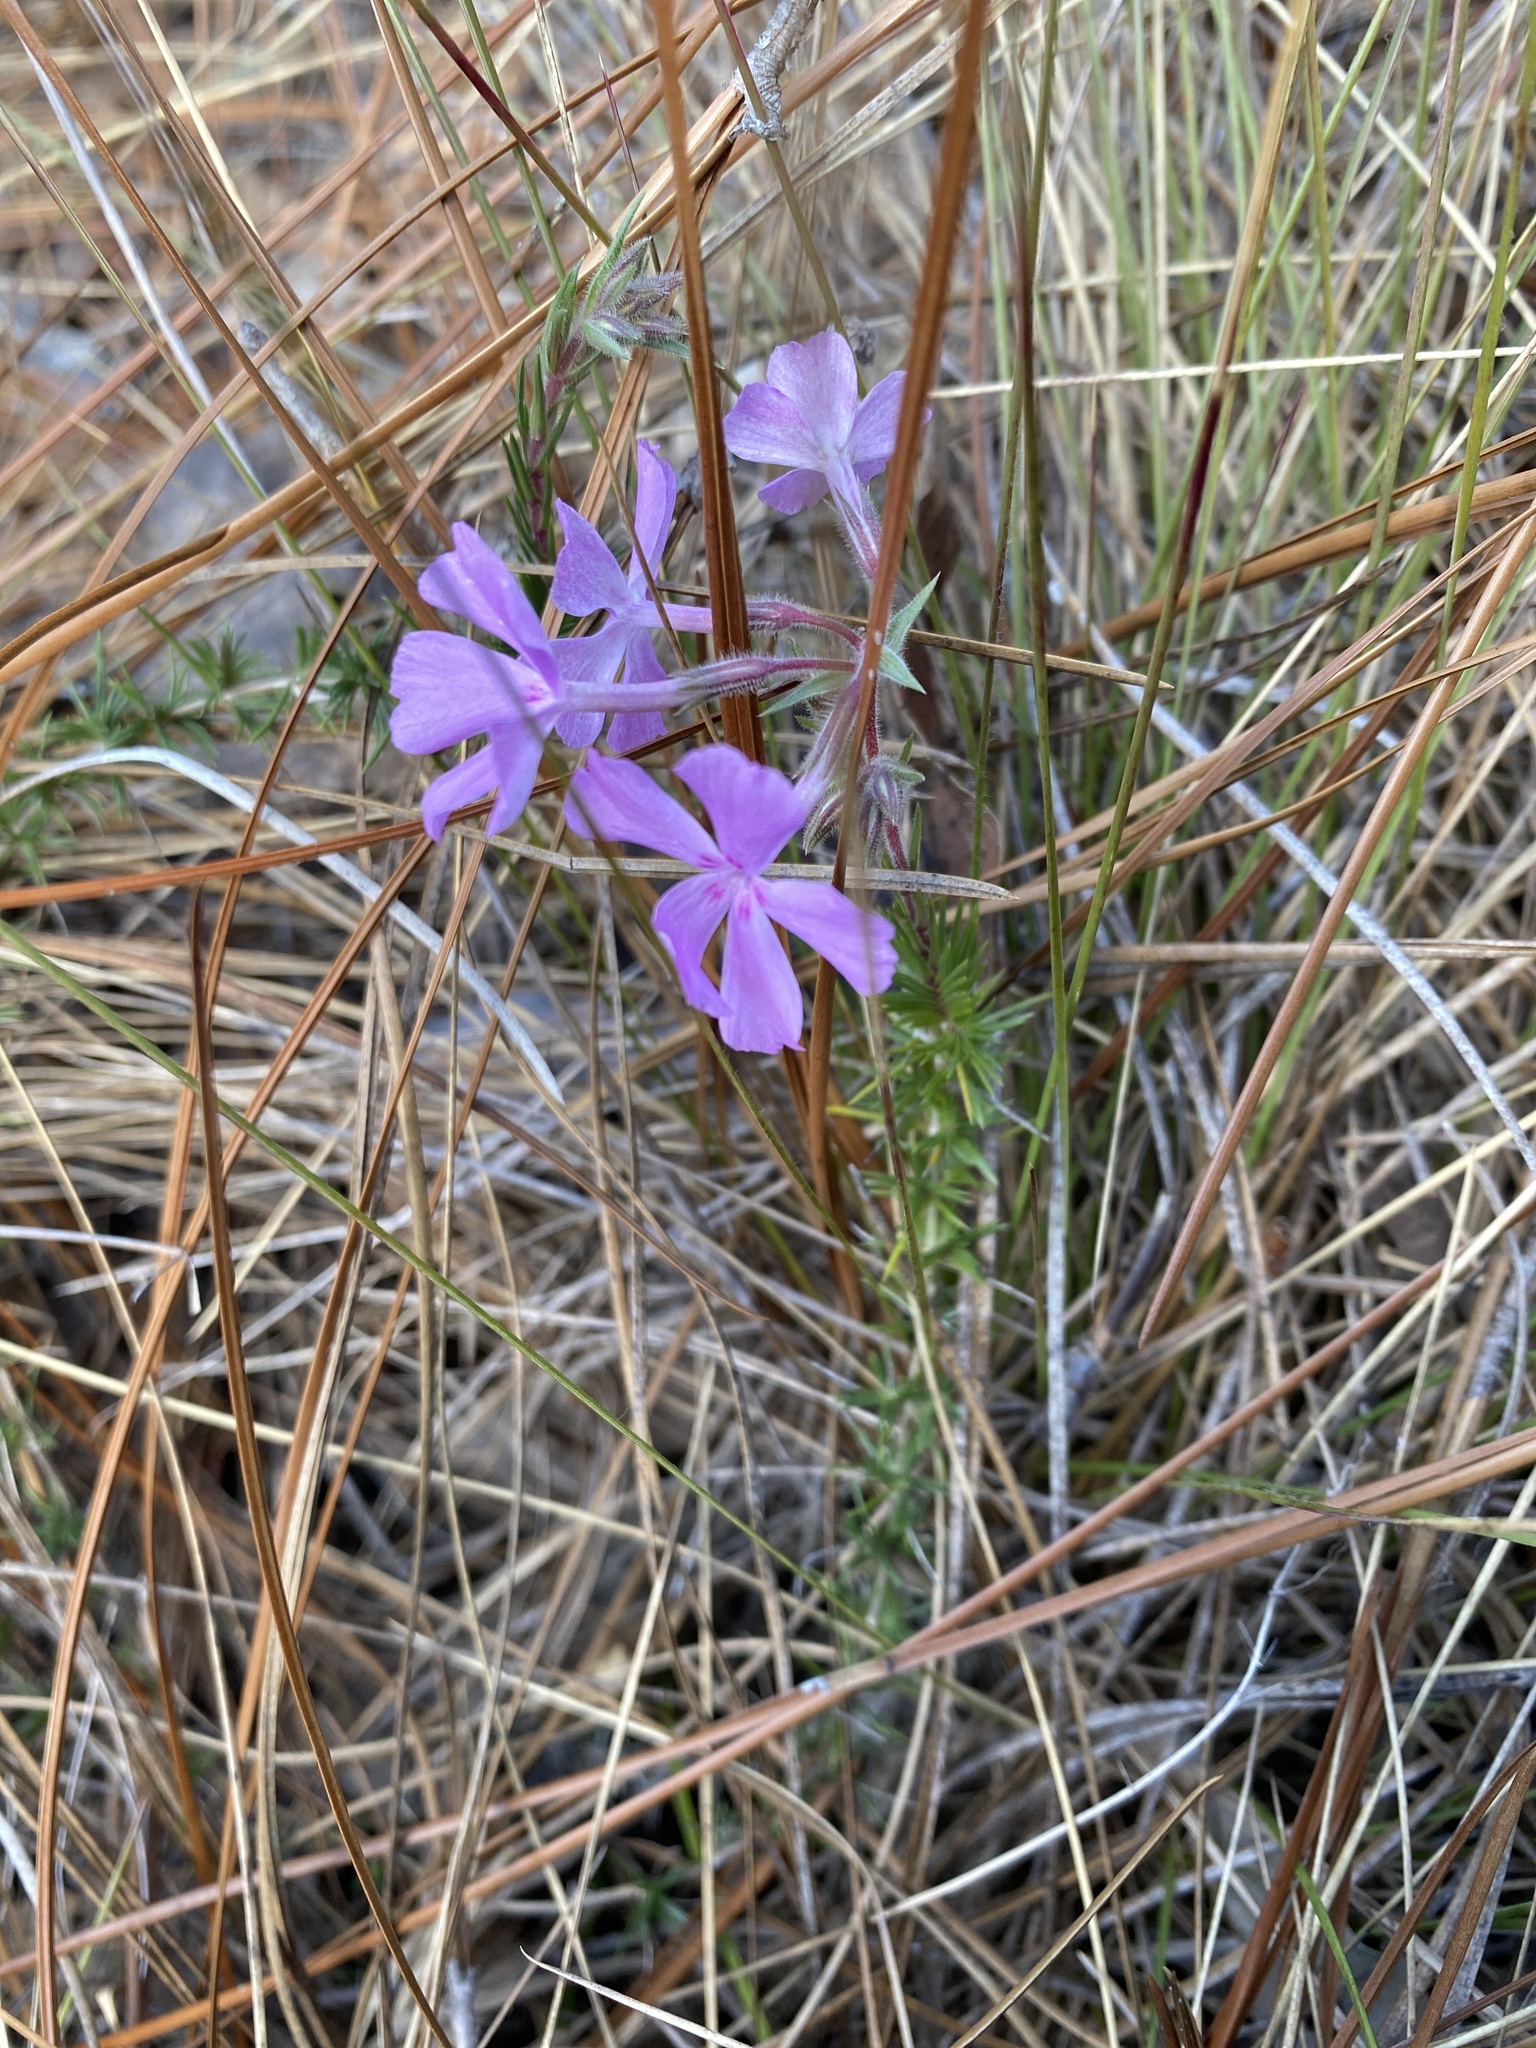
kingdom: Plantae
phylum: Tracheophyta
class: Magnoliopsida
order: Ericales
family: Polemoniaceae
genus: Phlox
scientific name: Phlox nivalis
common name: Trailing phlox
